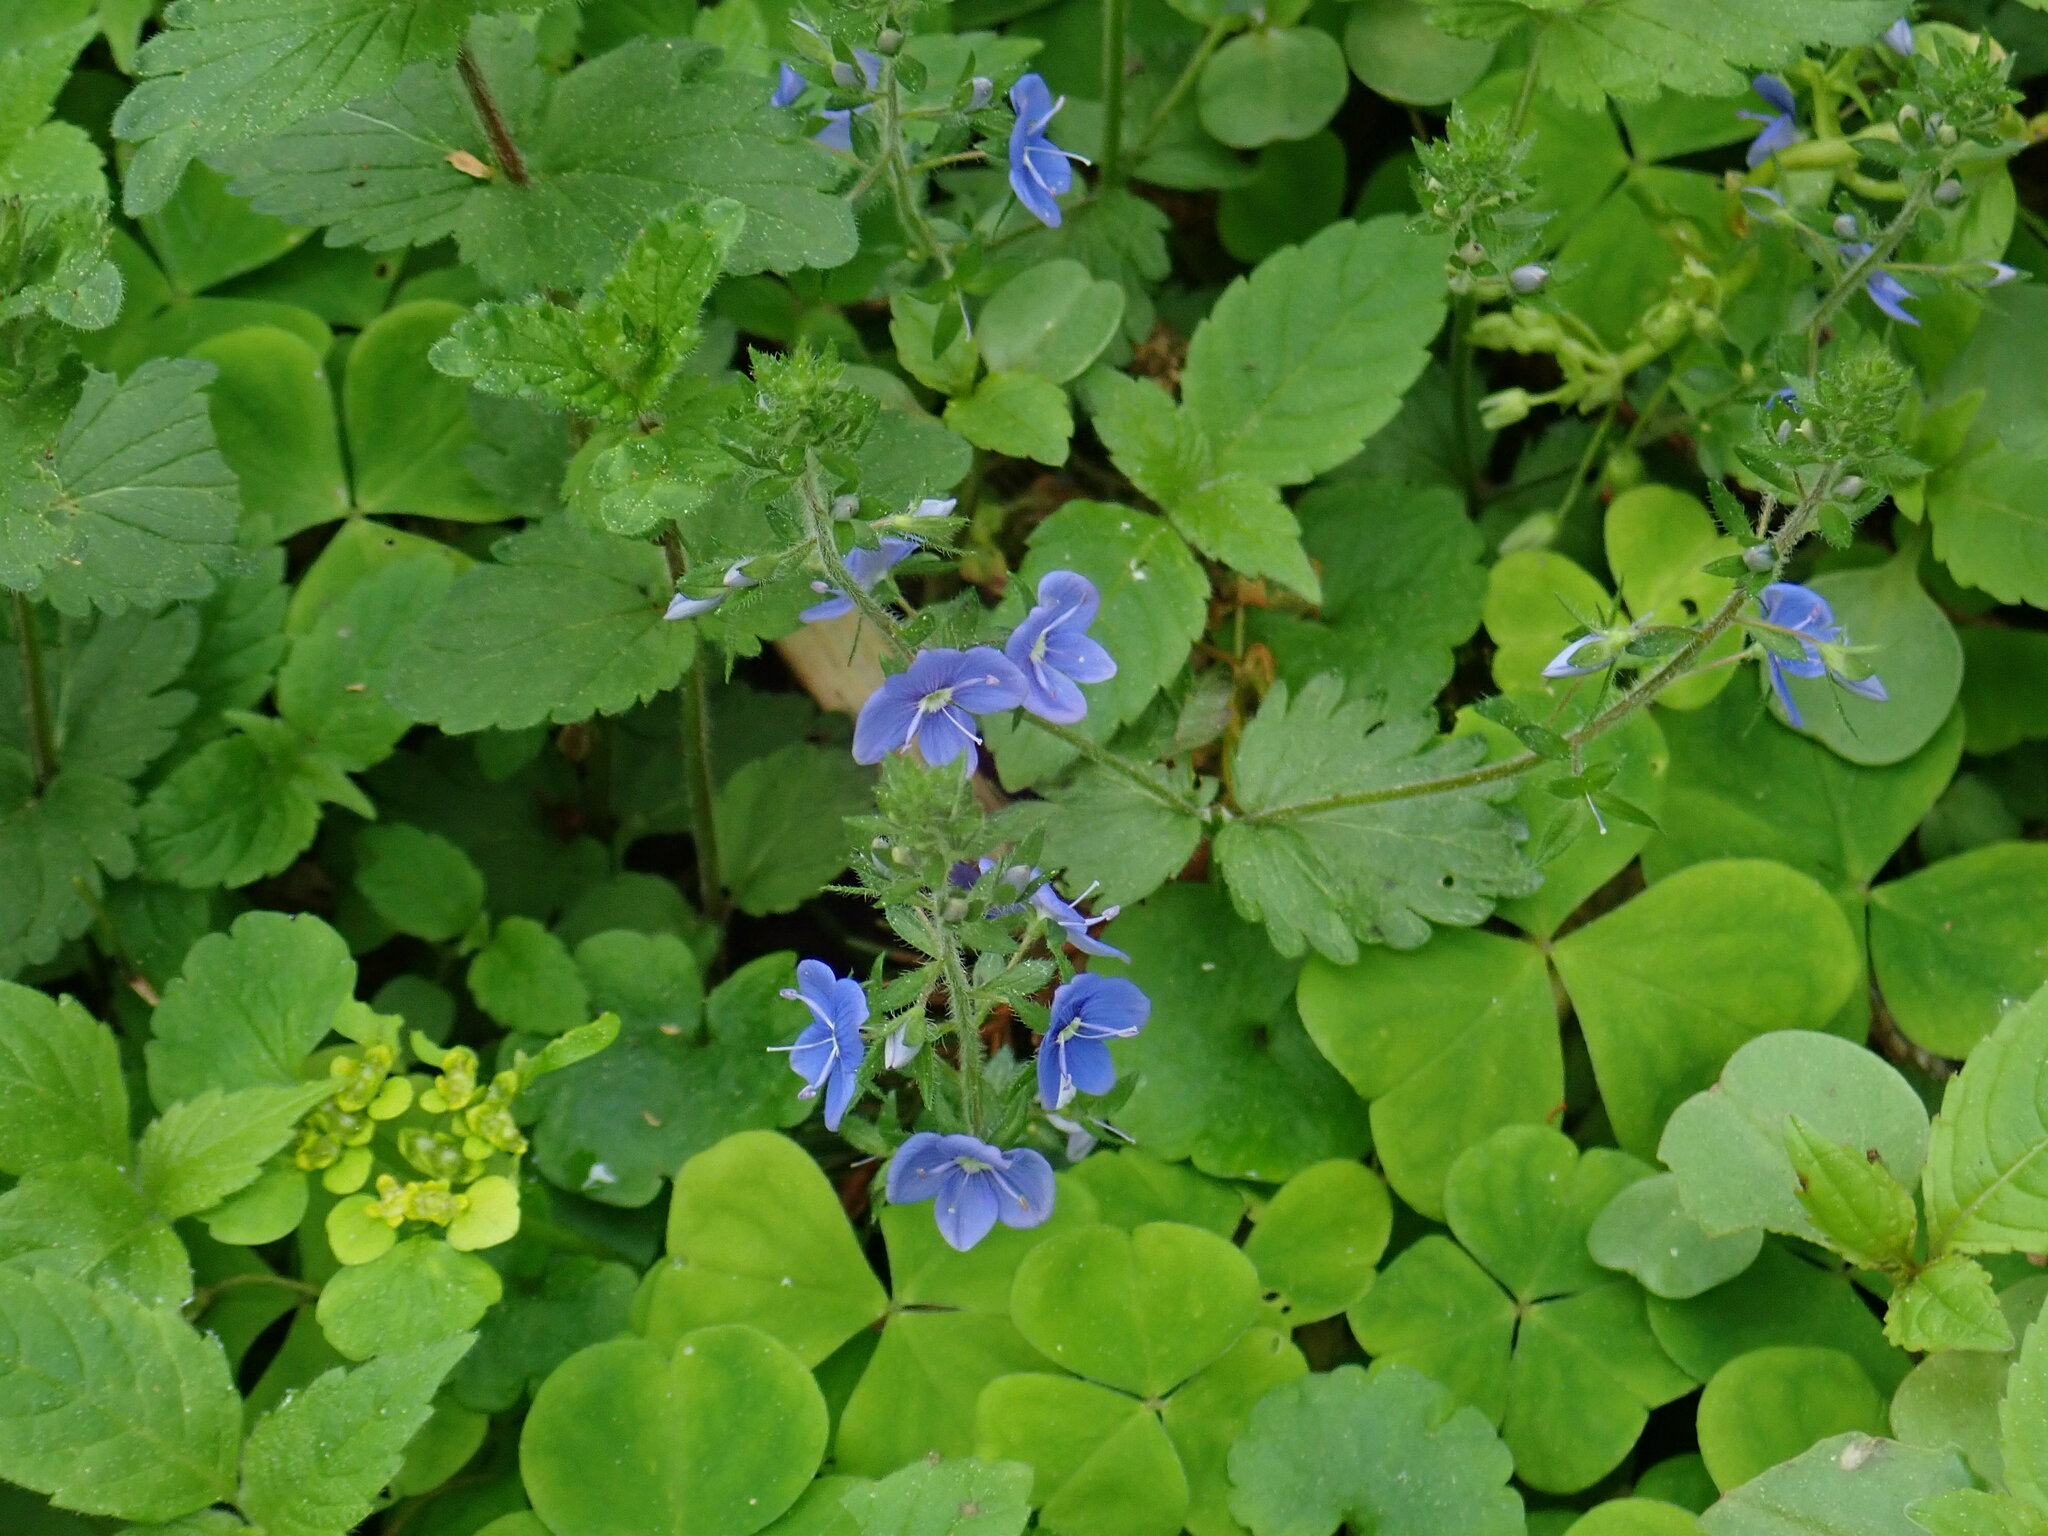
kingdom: Plantae
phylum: Tracheophyta
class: Magnoliopsida
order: Lamiales
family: Plantaginaceae
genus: Veronica
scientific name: Veronica chamaedrys
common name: Germander speedwell
